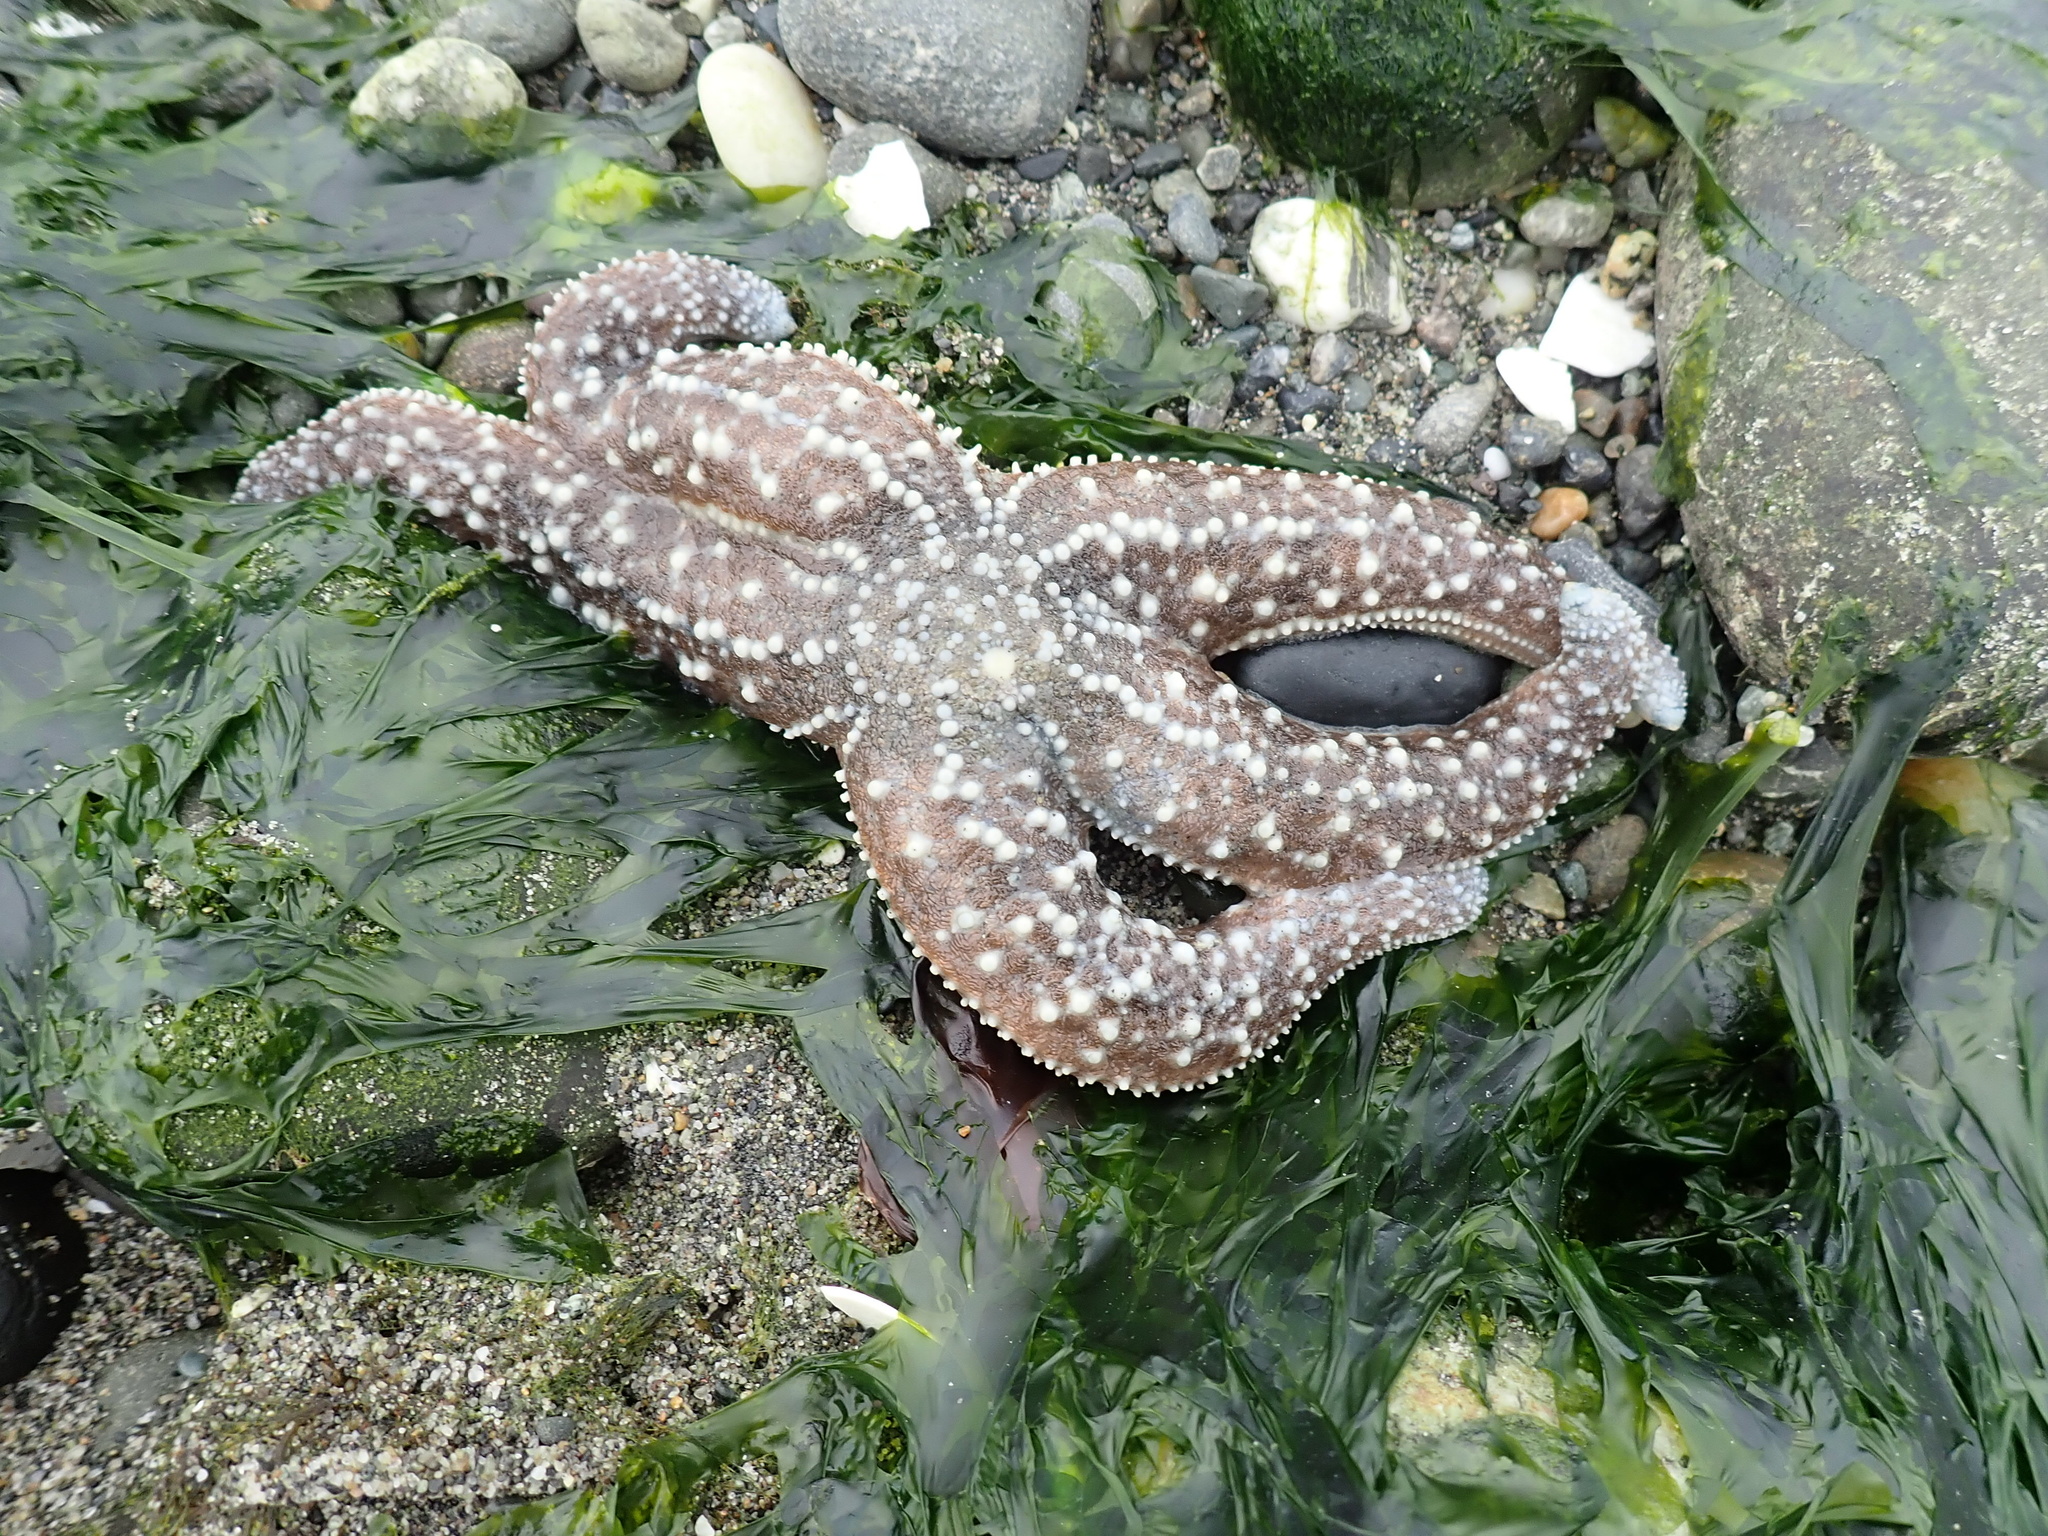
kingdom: Animalia
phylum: Echinodermata
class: Asteroidea
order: Forcipulatida
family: Asteriidae
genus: Evasterias
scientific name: Evasterias troschelii
